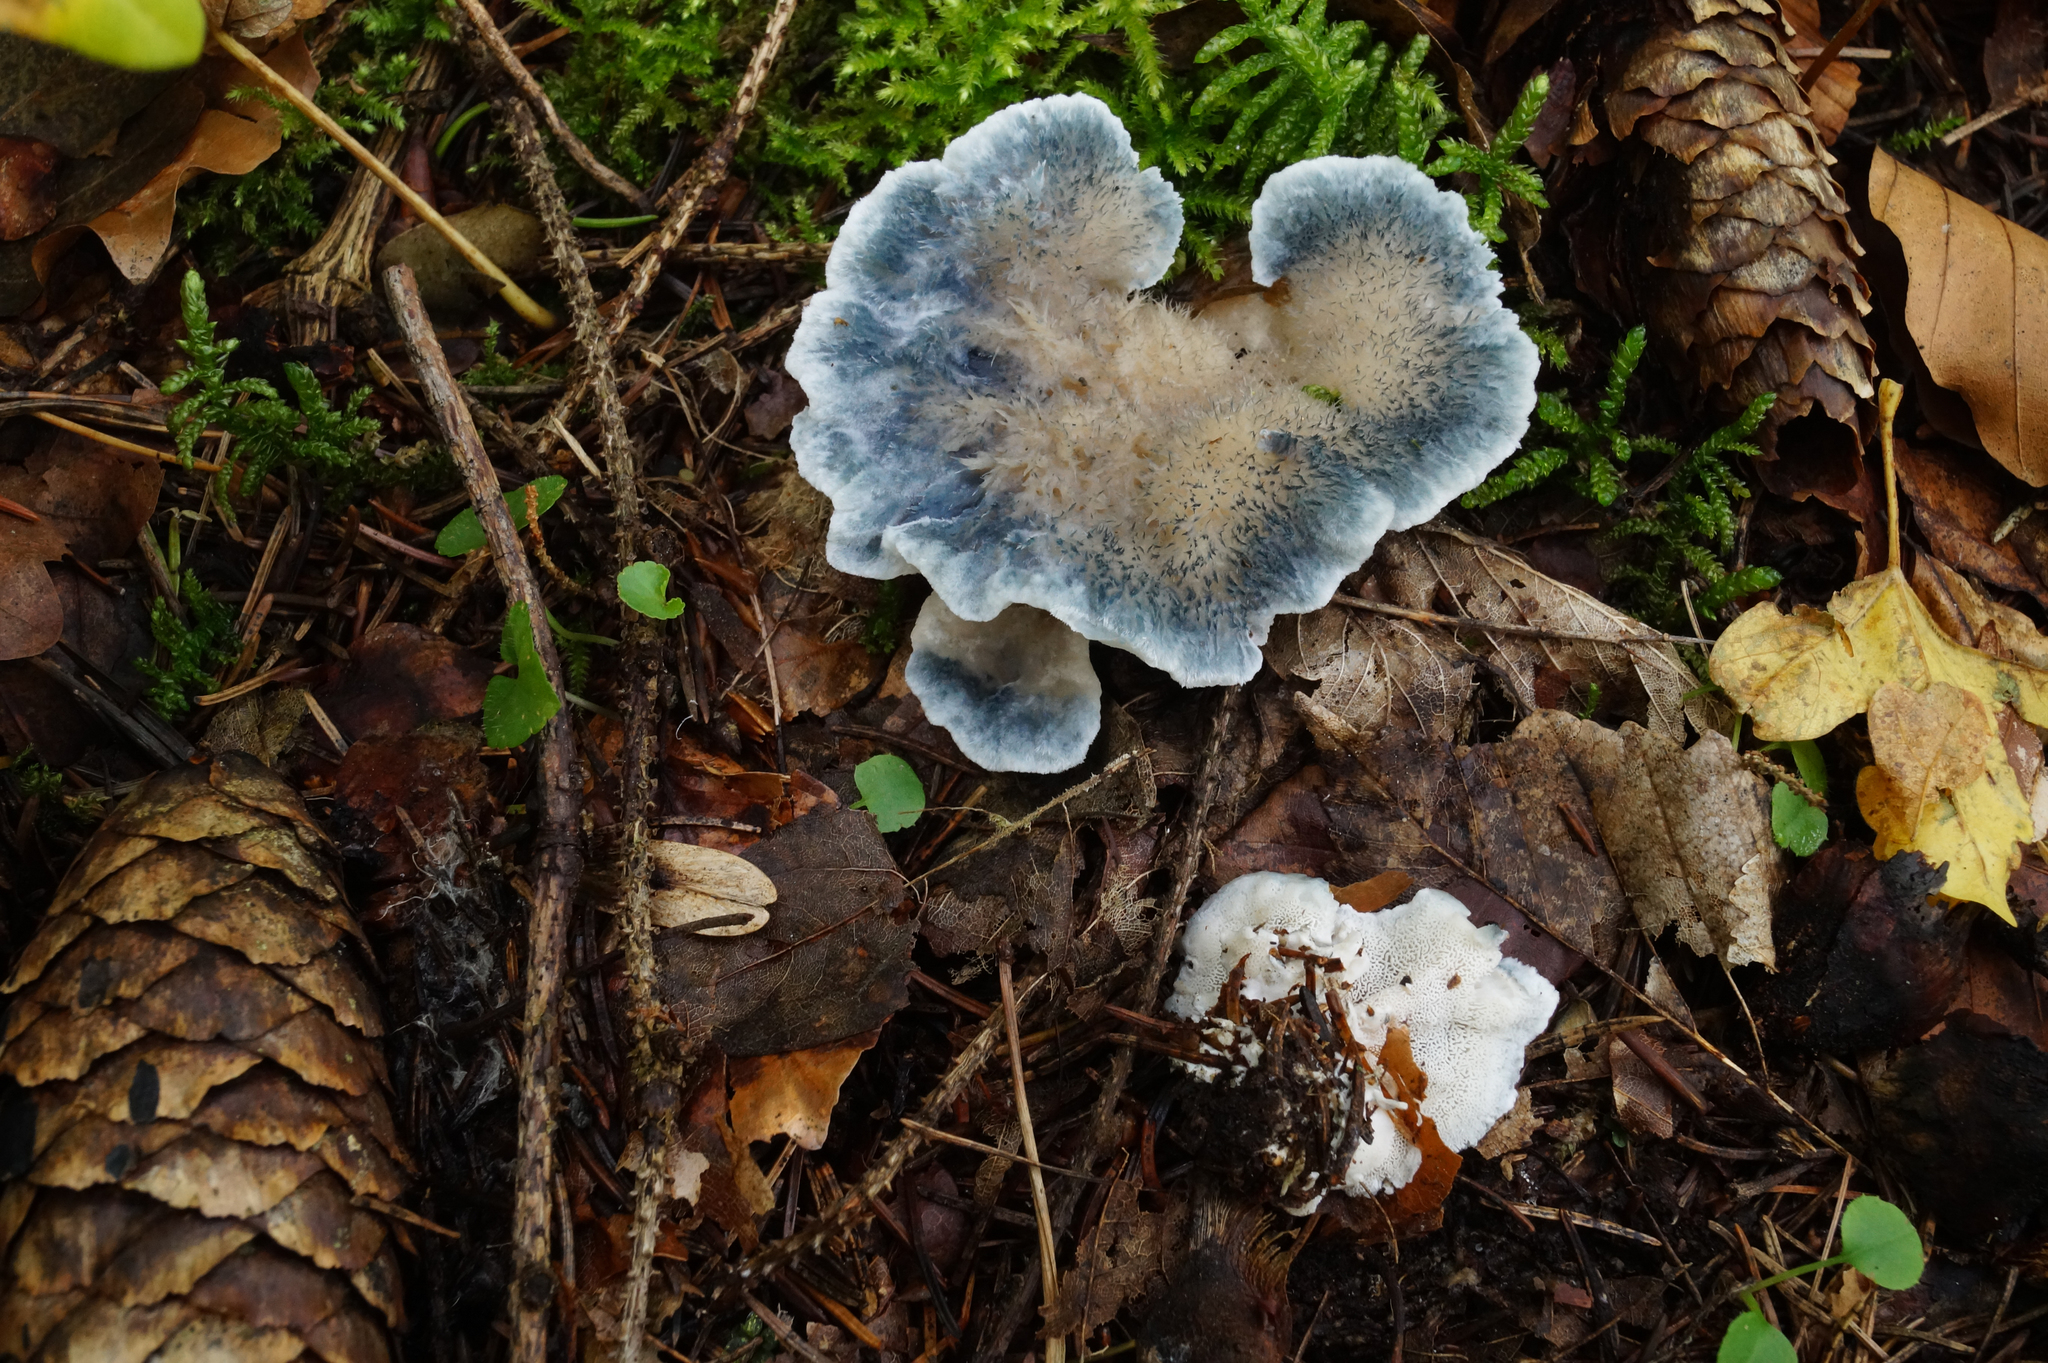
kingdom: Fungi
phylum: Basidiomycota
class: Agaricomycetes
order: Polyporales
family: Polyporaceae
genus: Cyanosporus
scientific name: Cyanosporus caesius
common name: Blue cheese polypore
